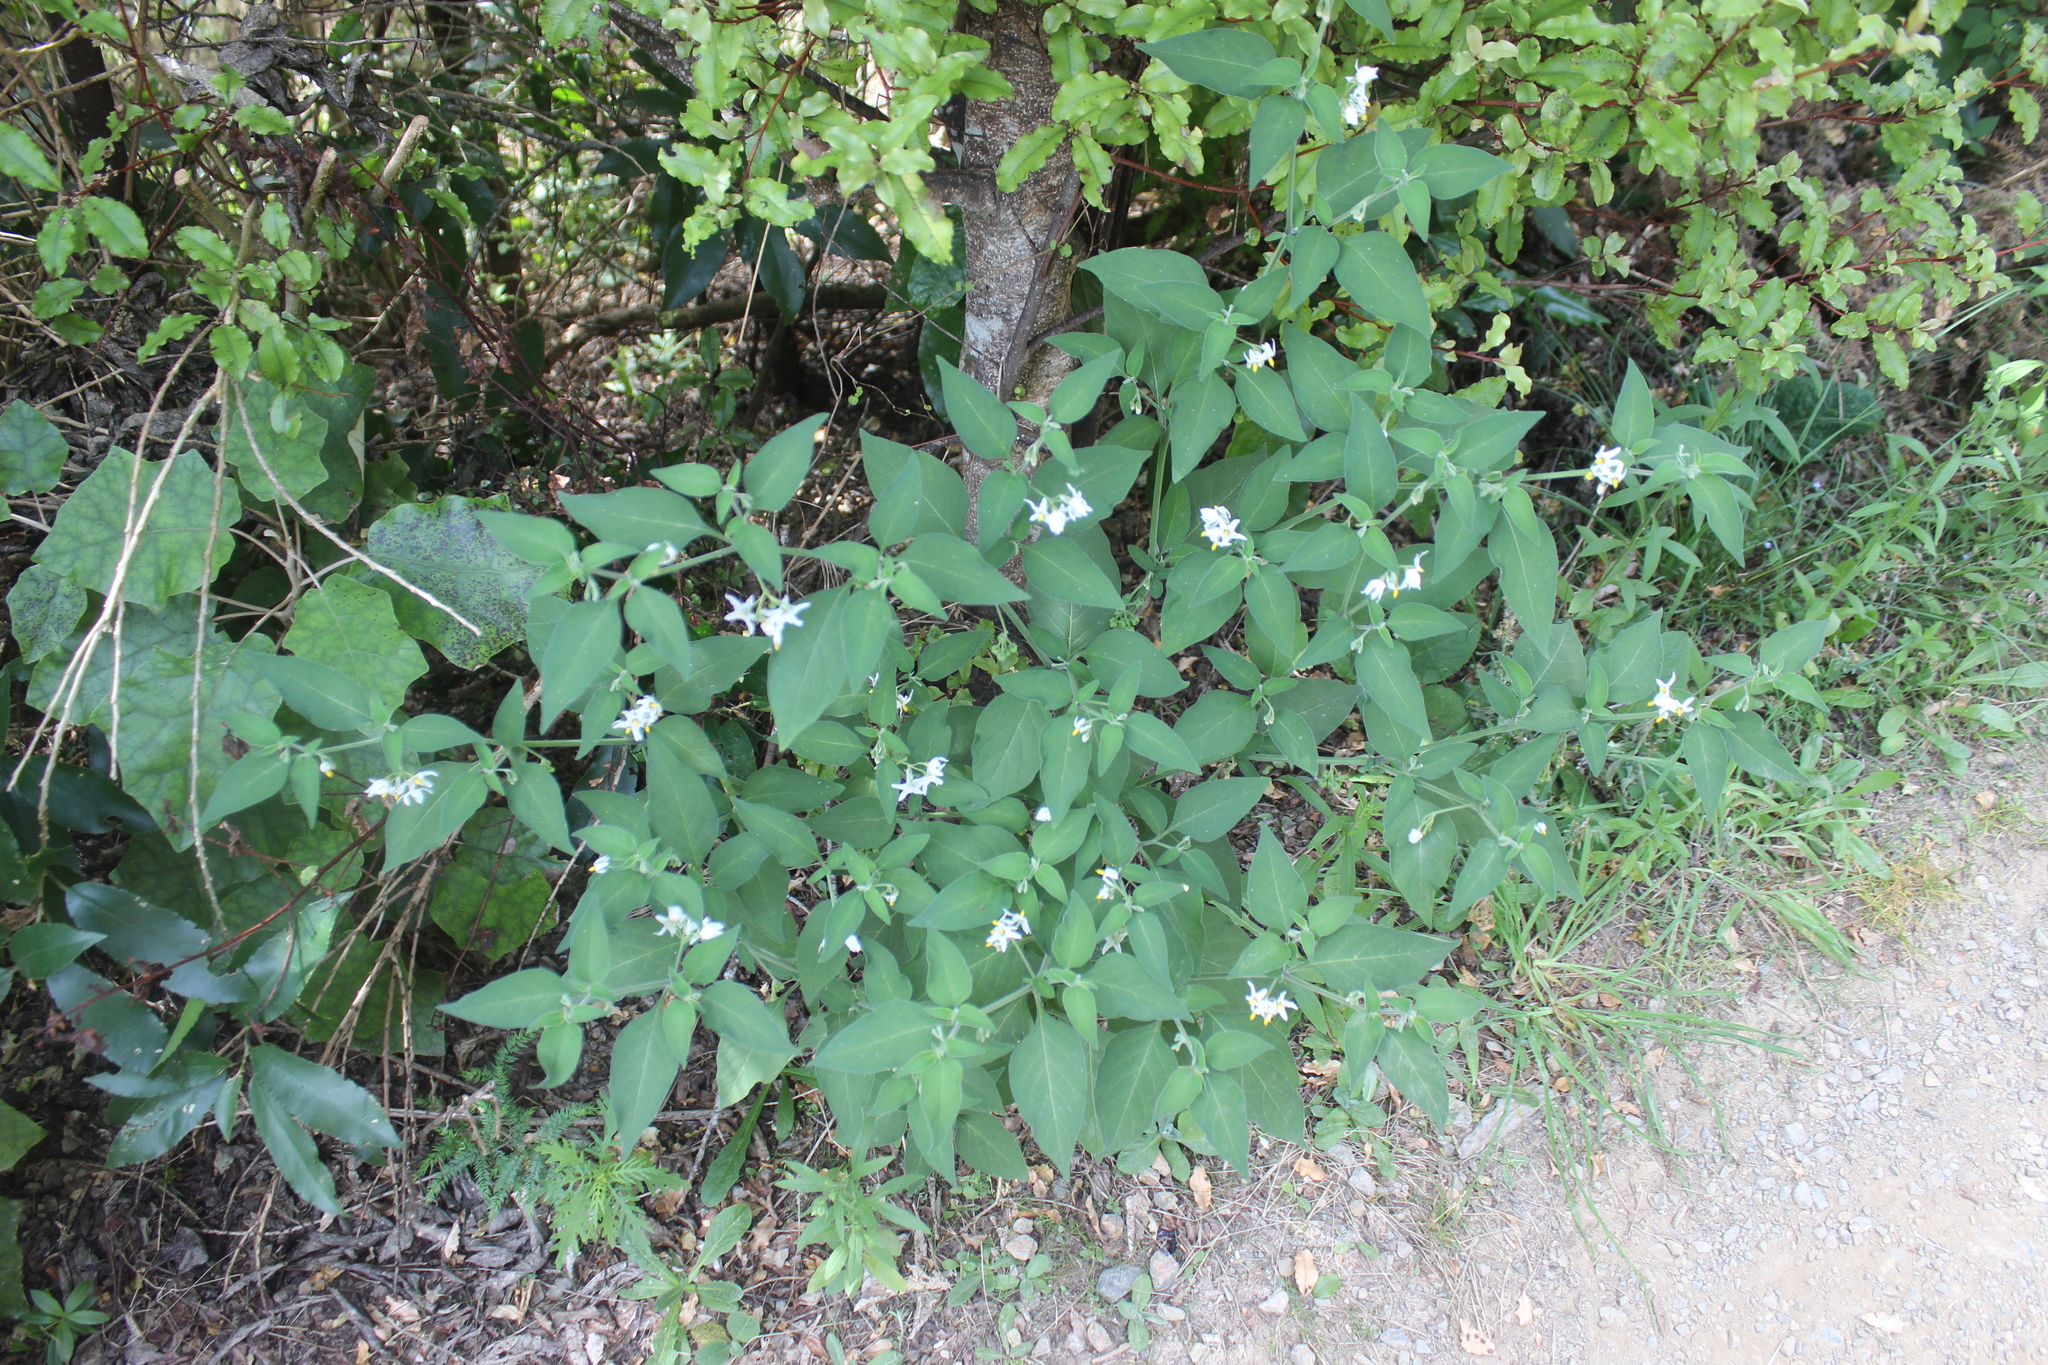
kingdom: Plantae
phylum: Tracheophyta
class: Magnoliopsida
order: Solanales
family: Solanaceae
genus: Solanum
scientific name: Solanum chenopodioides
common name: Tall nightshade
